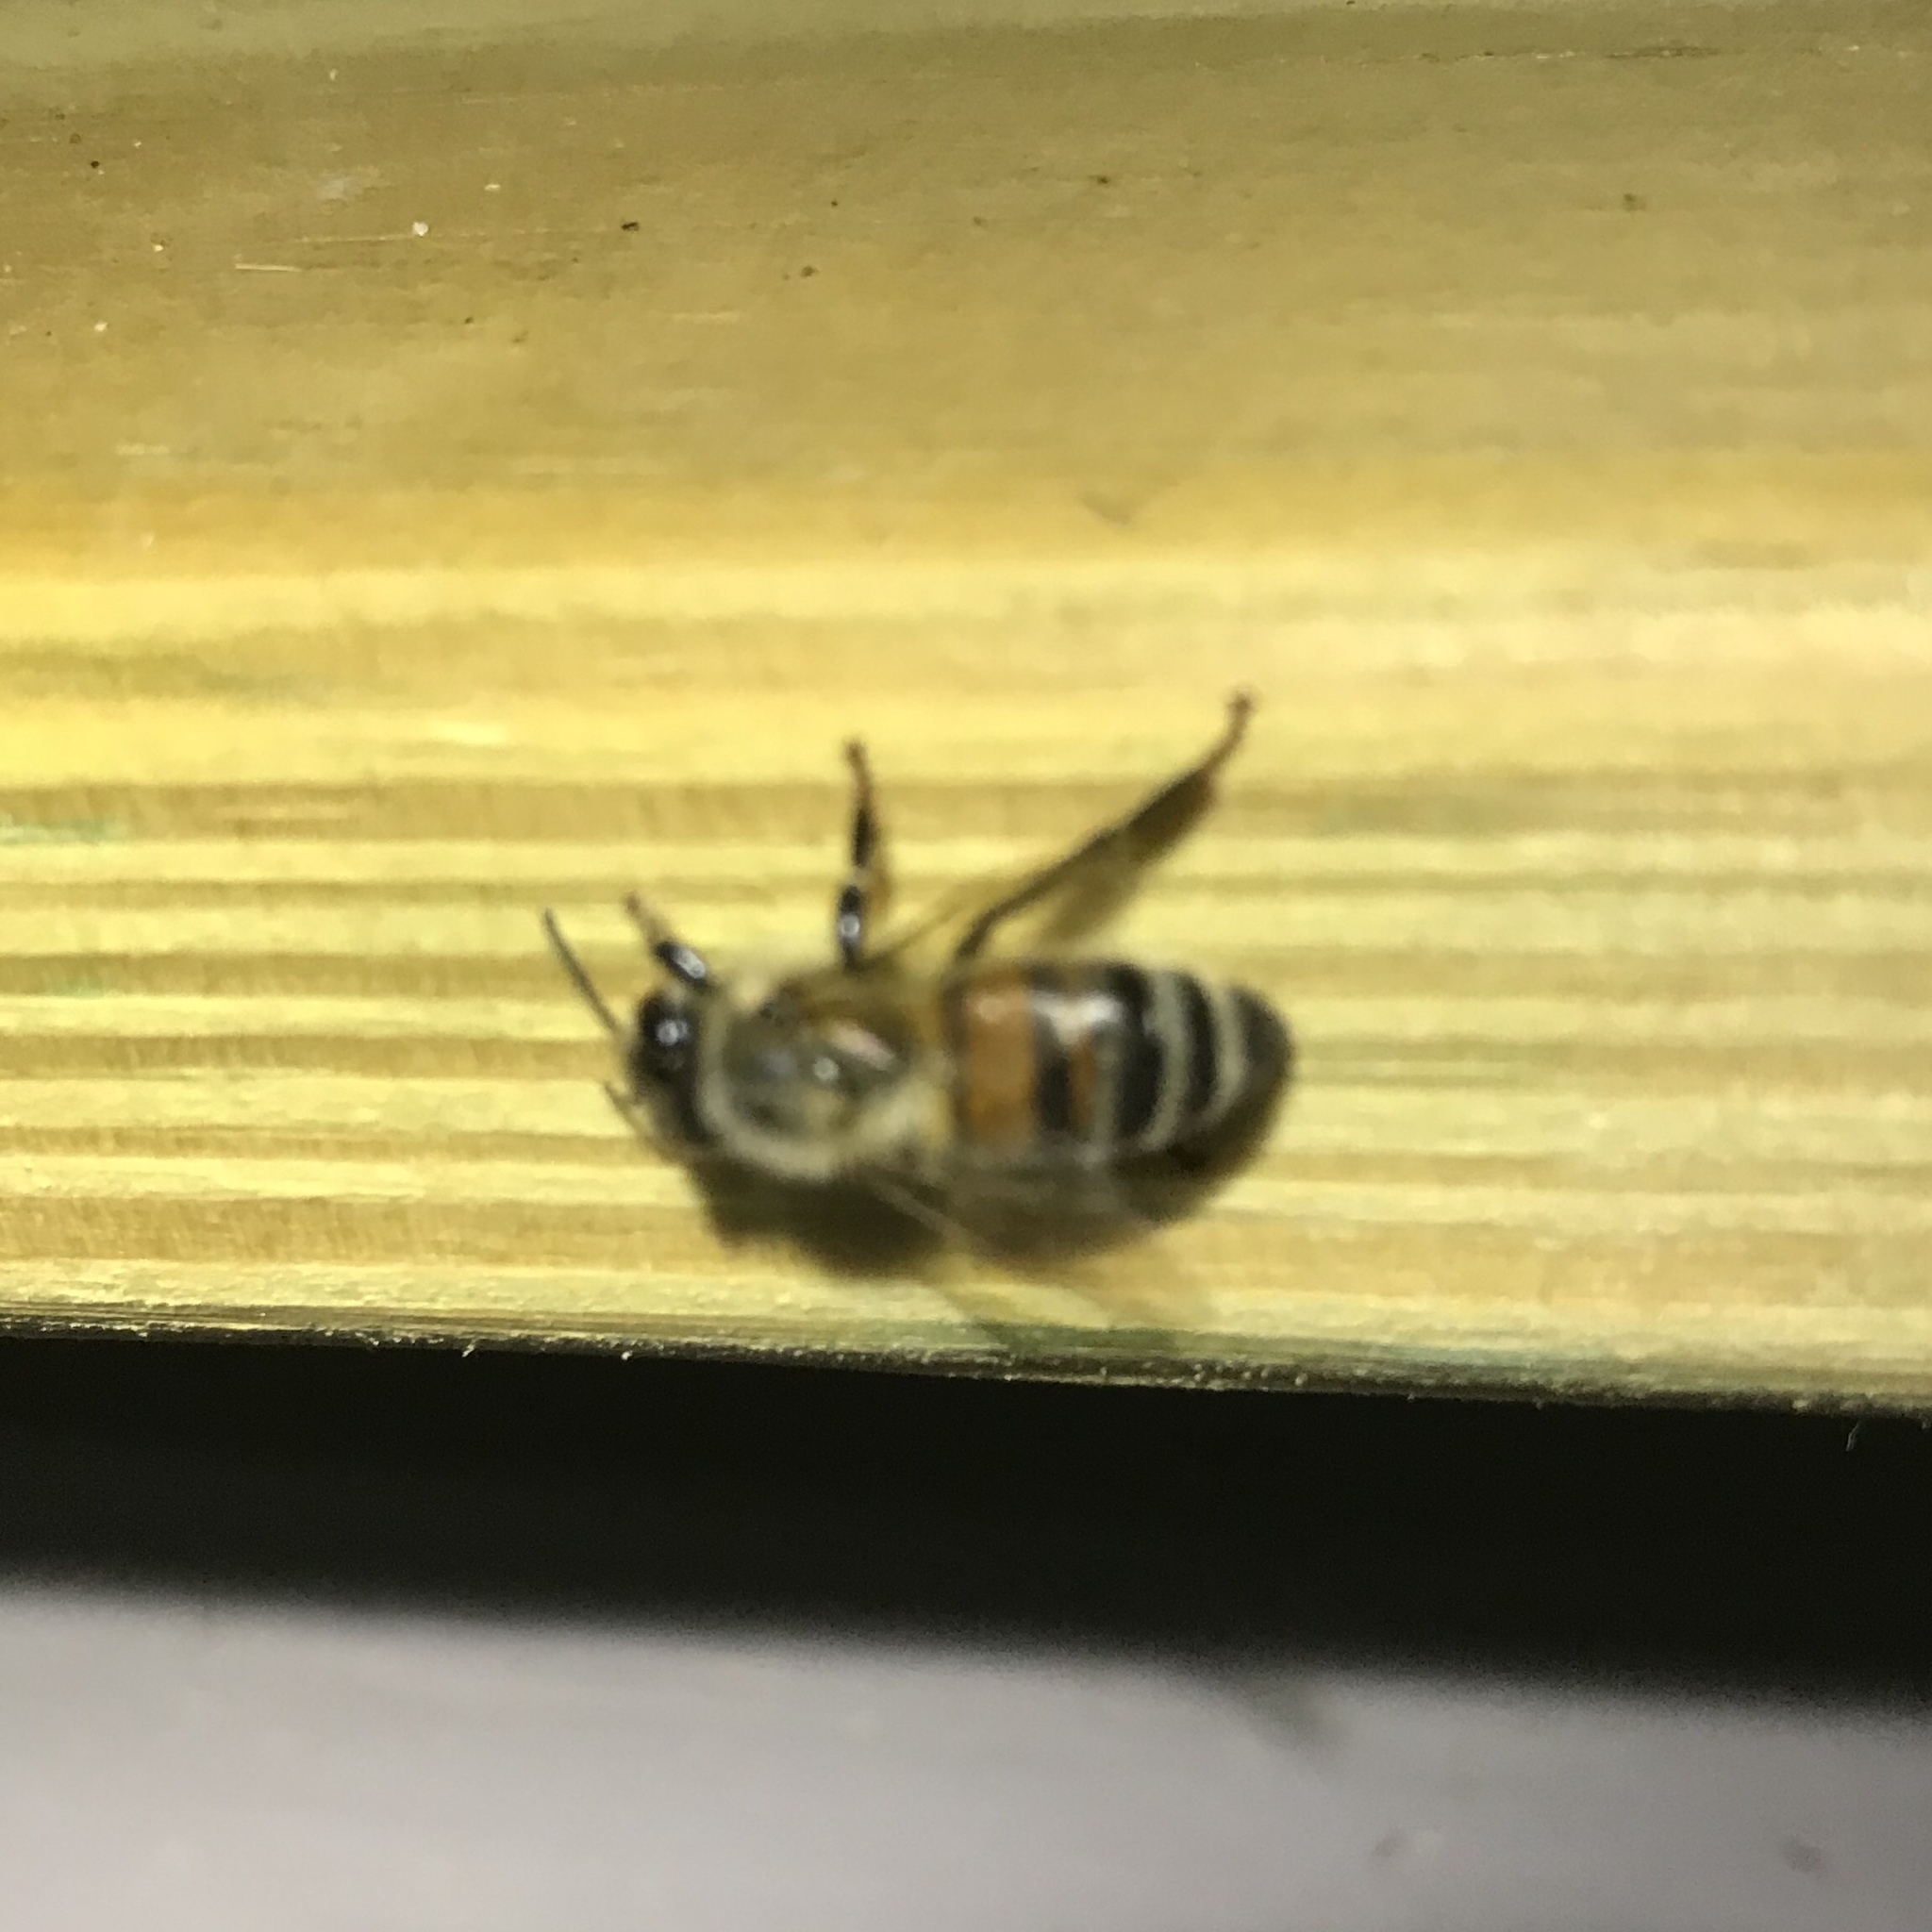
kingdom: Animalia
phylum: Arthropoda
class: Insecta
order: Hymenoptera
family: Apidae
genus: Apis
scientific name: Apis mellifera
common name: Honey bee
